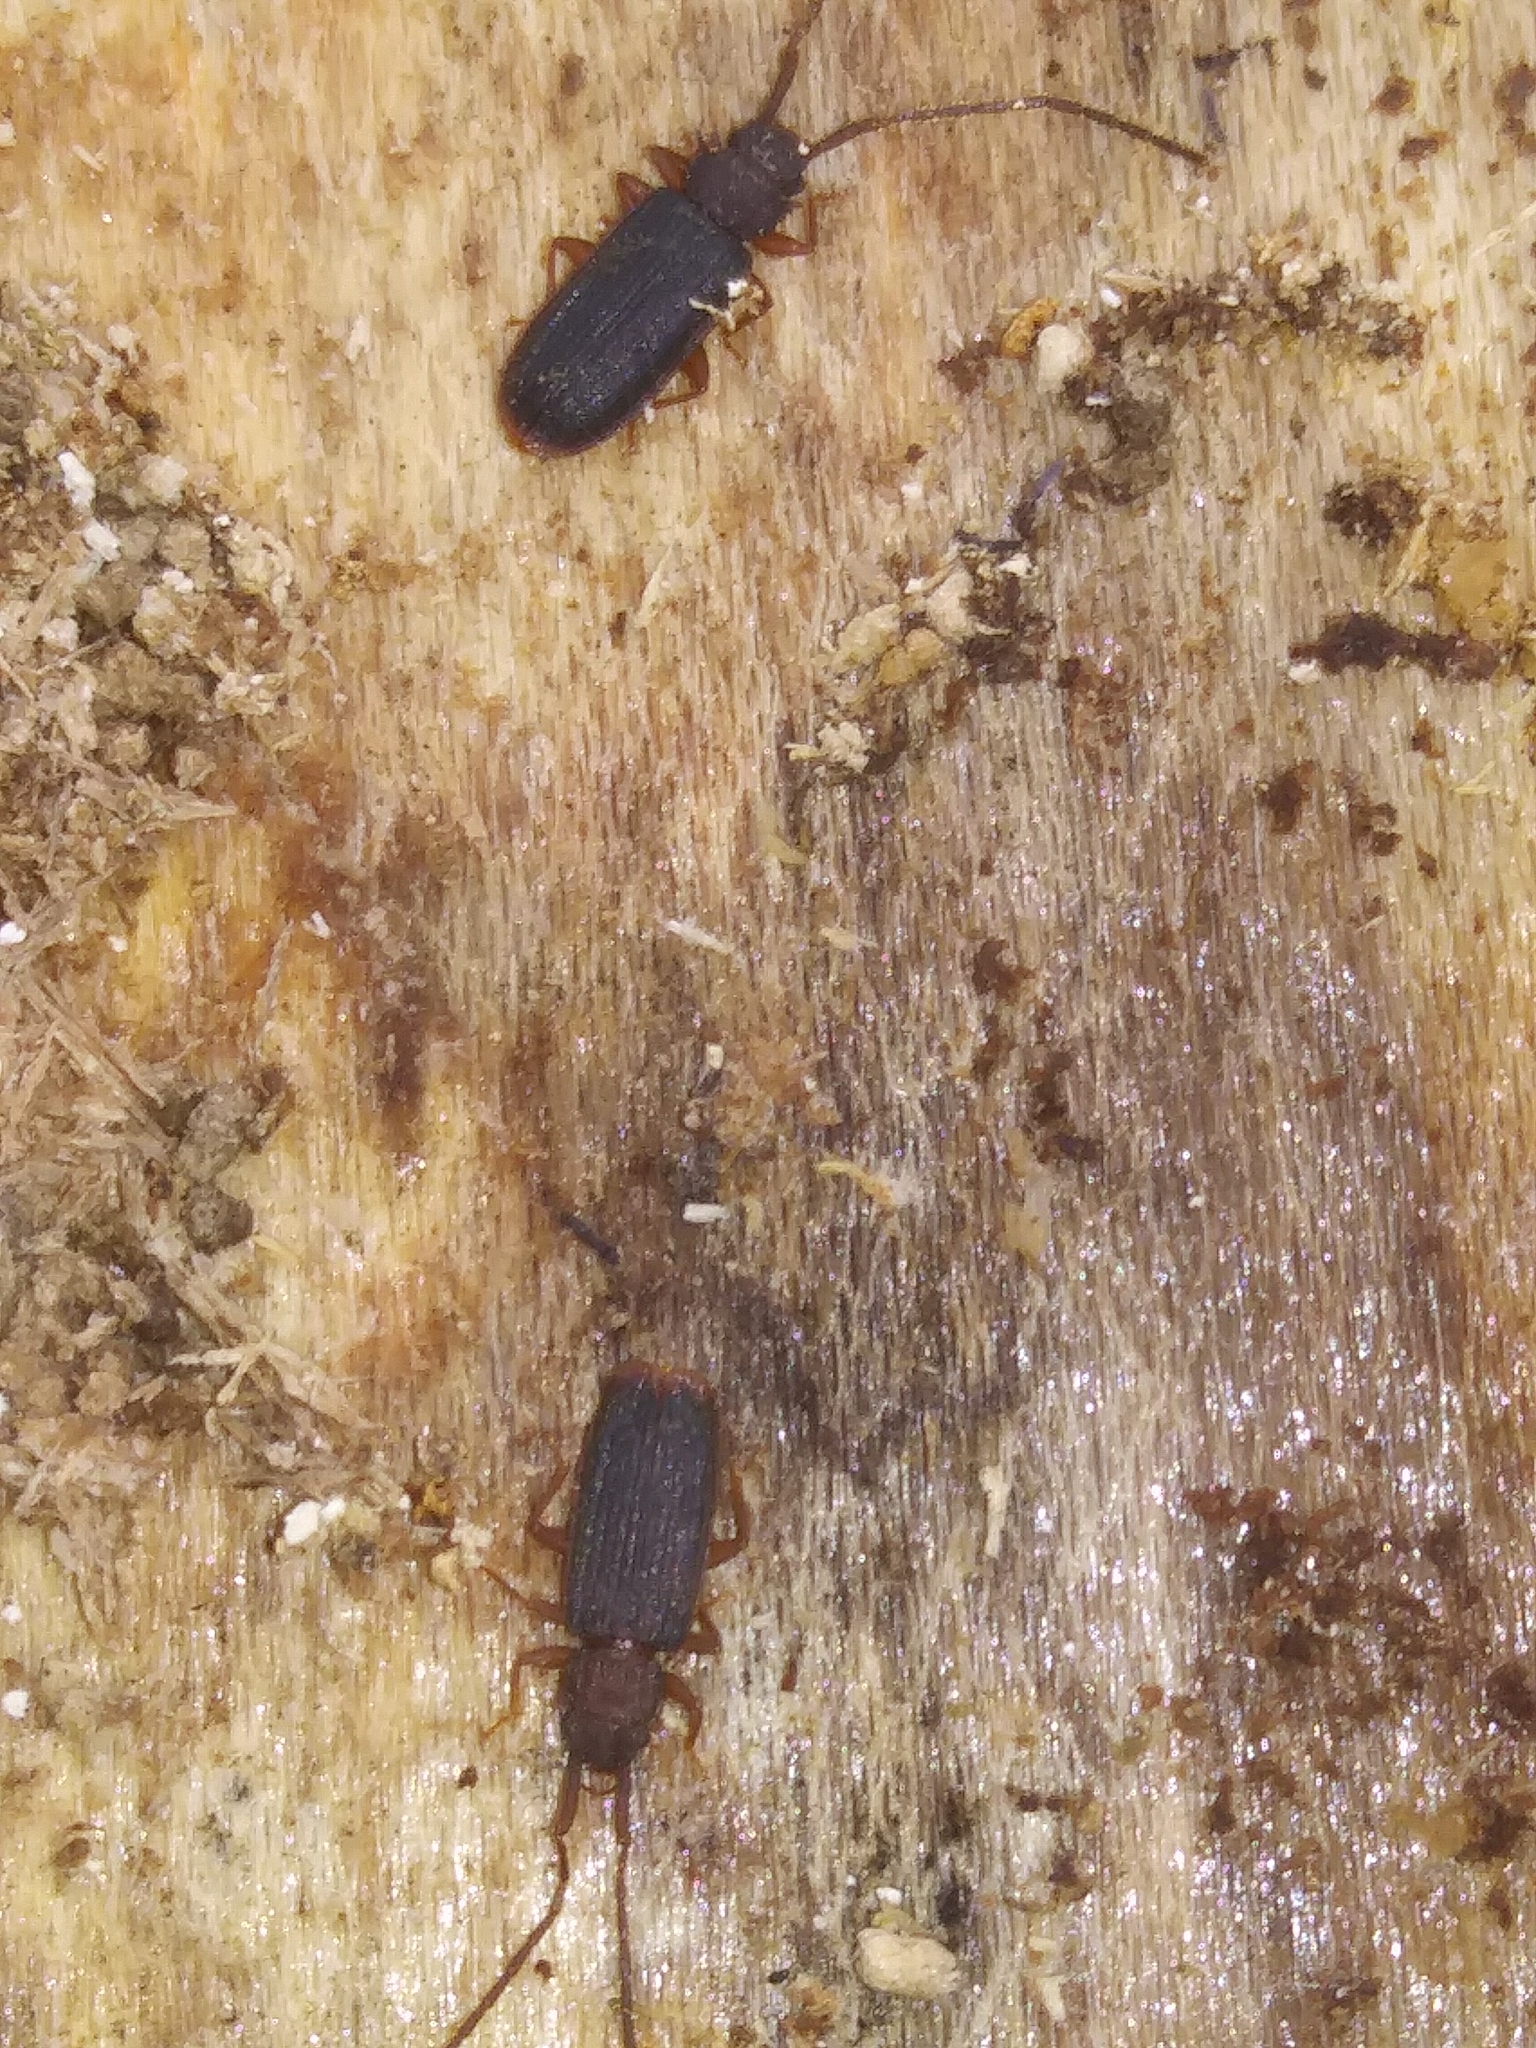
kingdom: Animalia
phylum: Arthropoda
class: Insecta
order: Coleoptera
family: Silvanidae
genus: Uleiota
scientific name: Uleiota dubia
